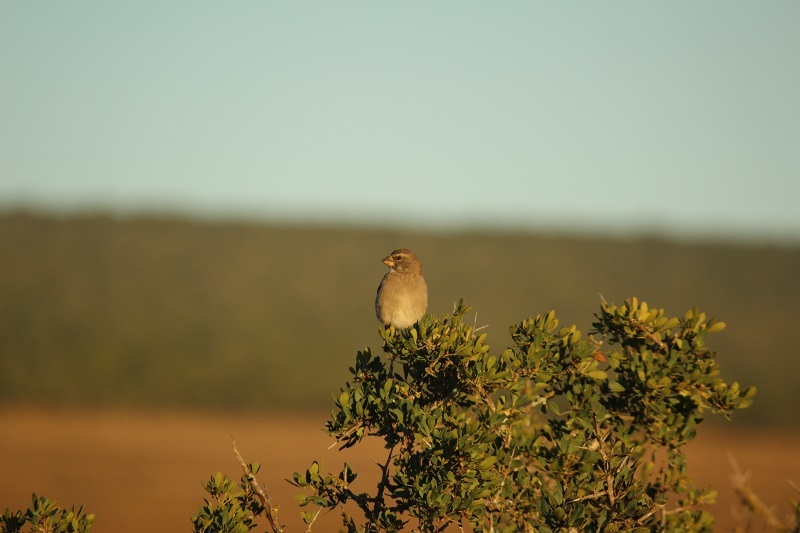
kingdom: Animalia
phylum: Chordata
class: Aves
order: Passeriformes
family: Fringillidae
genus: Crithagra
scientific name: Crithagra gularis
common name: Streaky-headed seedeater
